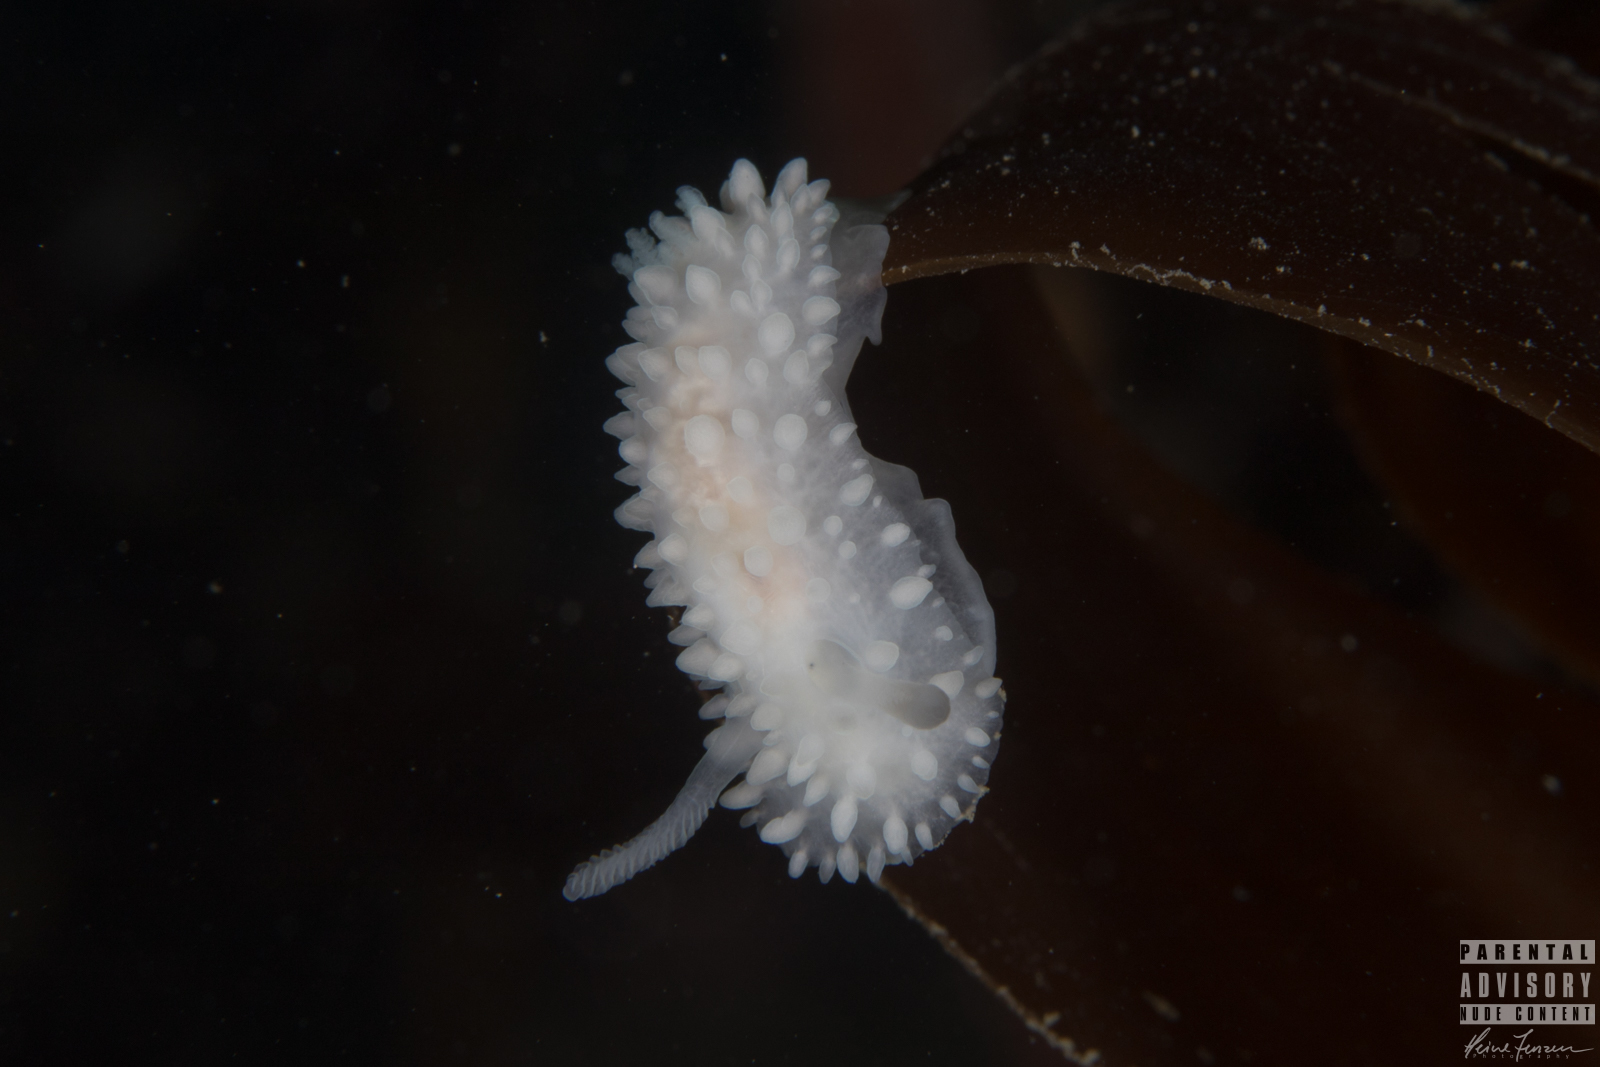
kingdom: Animalia
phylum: Mollusca
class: Gastropoda
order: Nudibranchia
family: Onchidorididae
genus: Adalaria
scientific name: Adalaria proxima
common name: False doris
